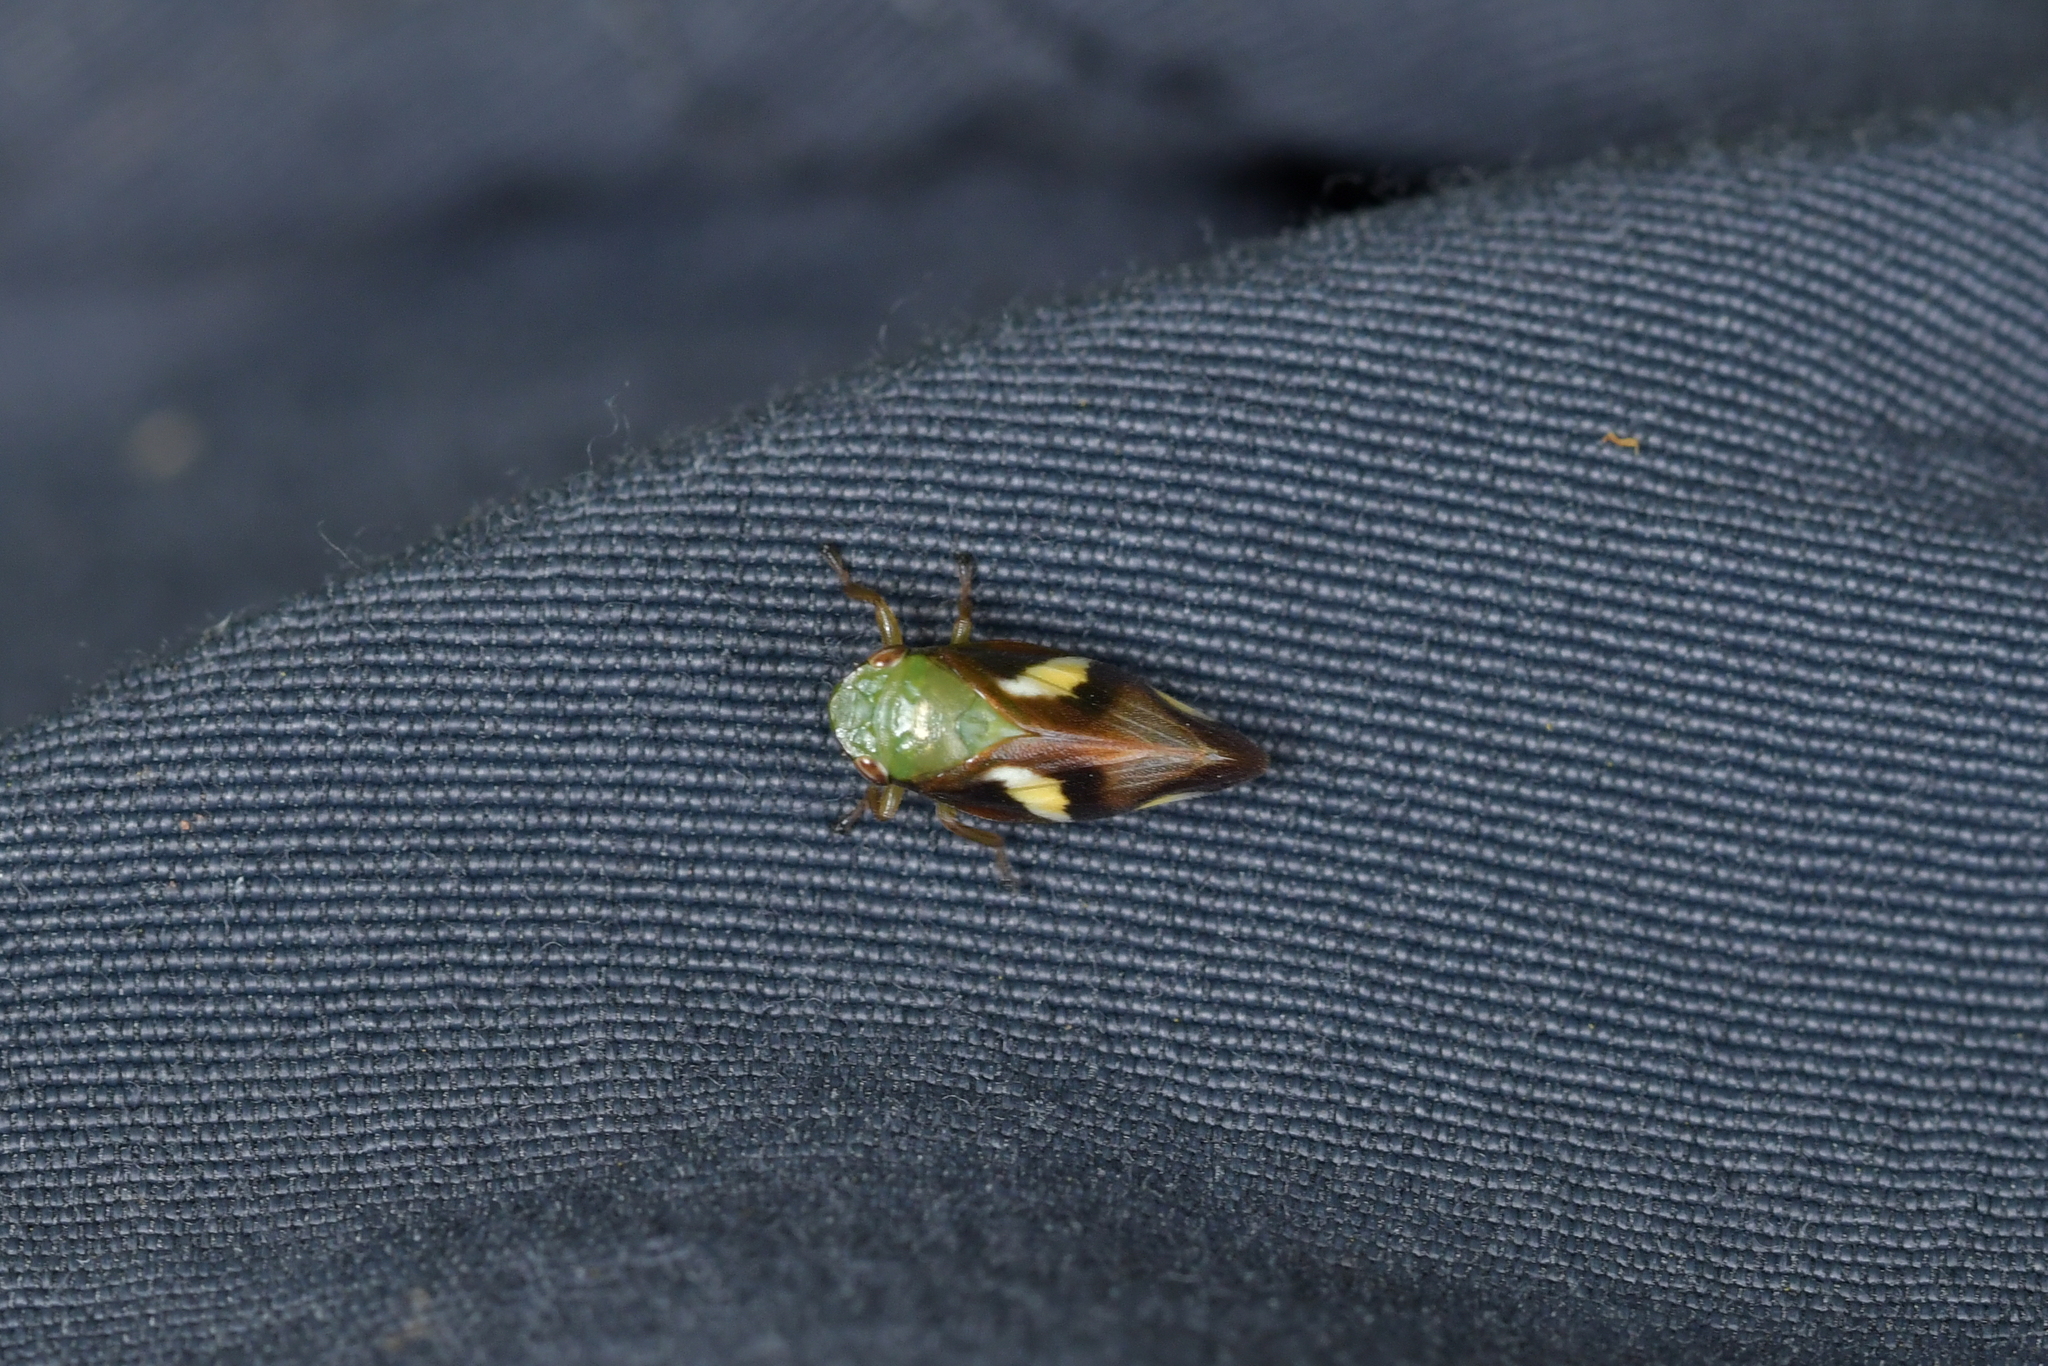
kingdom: Animalia
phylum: Arthropoda
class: Insecta
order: Hemiptera
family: Aphrophoridae
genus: Carystoterpa
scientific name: Carystoterpa fingens
